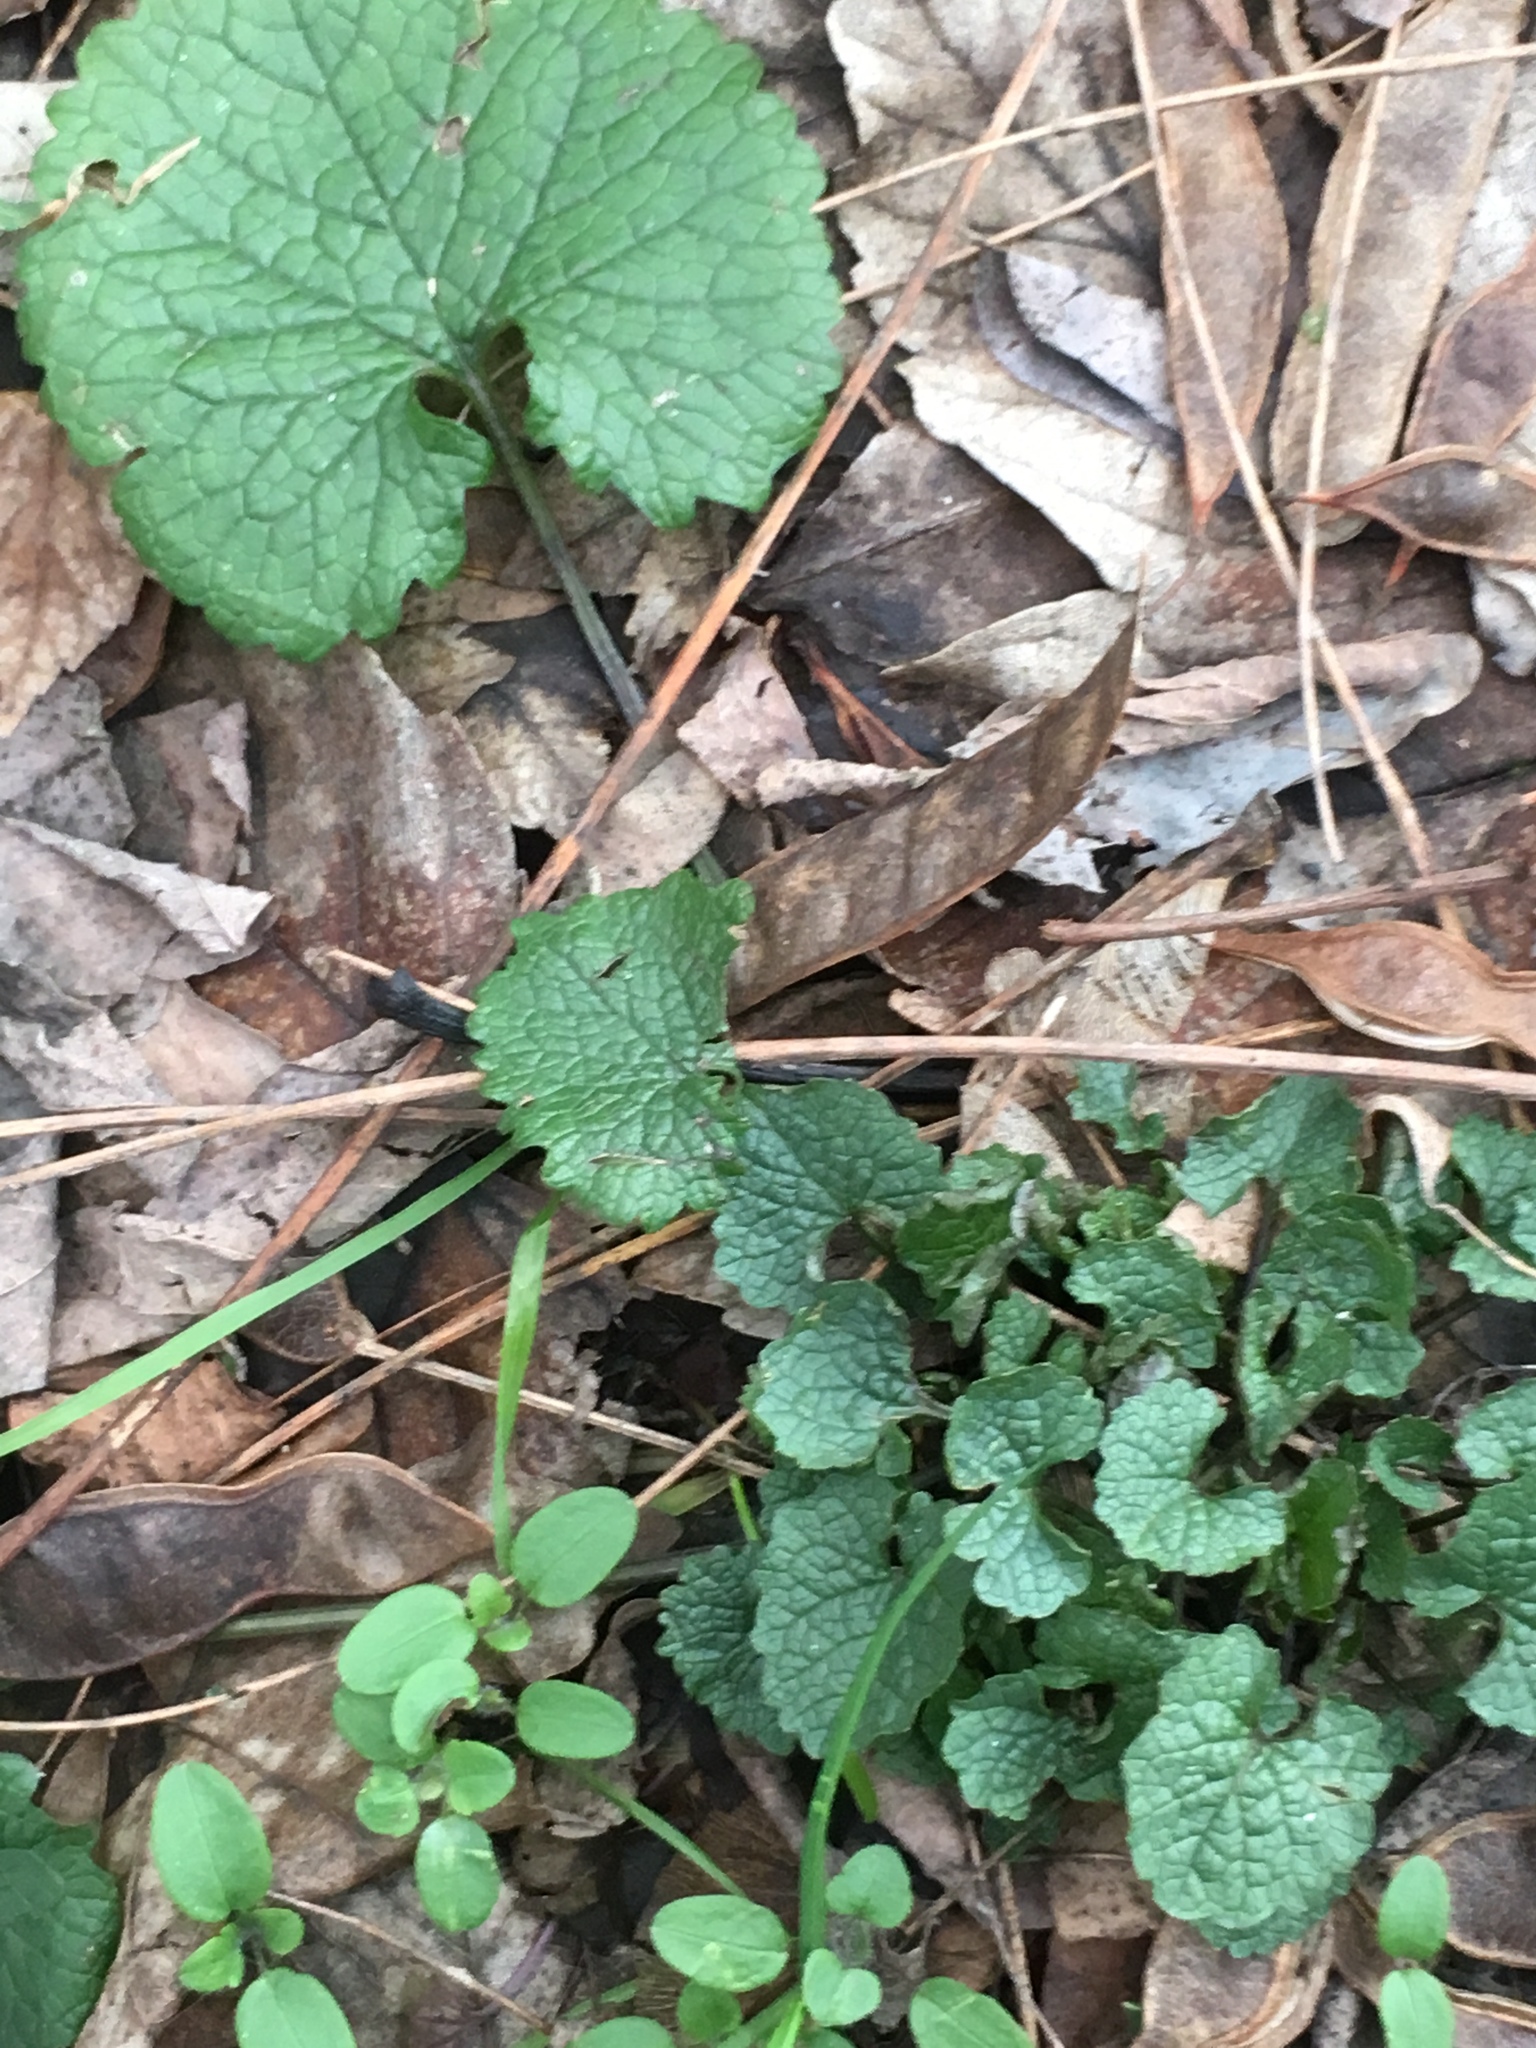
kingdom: Plantae
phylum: Tracheophyta
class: Magnoliopsida
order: Brassicales
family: Brassicaceae
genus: Alliaria
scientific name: Alliaria petiolata
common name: Garlic mustard
